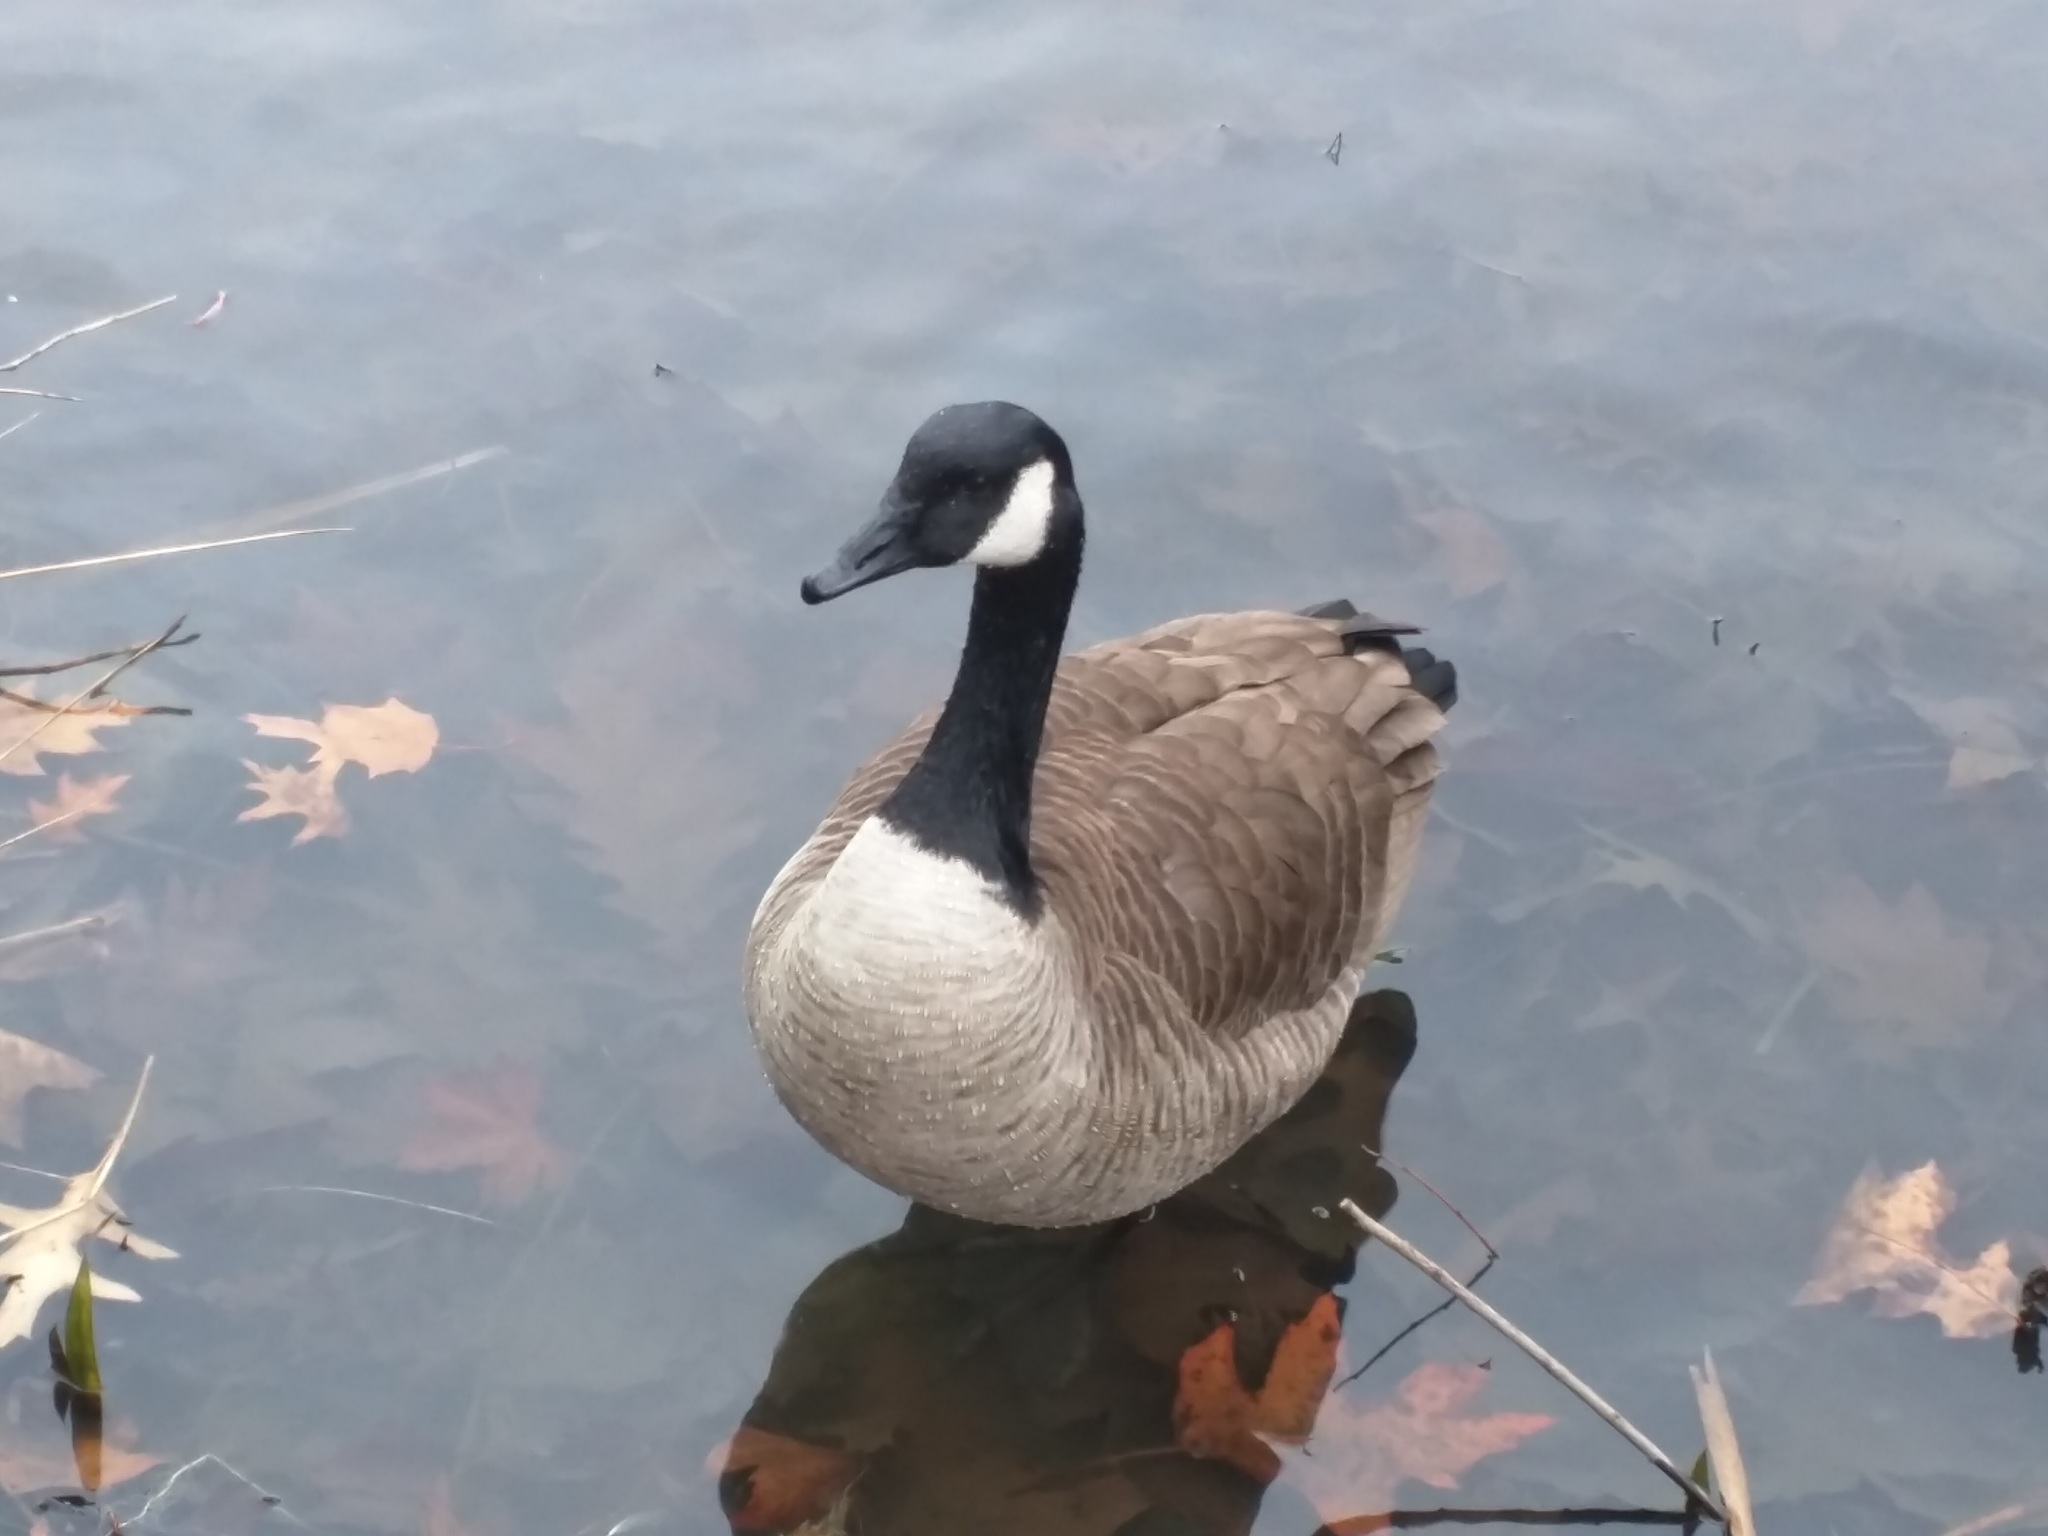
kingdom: Animalia
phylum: Chordata
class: Aves
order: Anseriformes
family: Anatidae
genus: Branta
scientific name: Branta canadensis
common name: Canada goose
